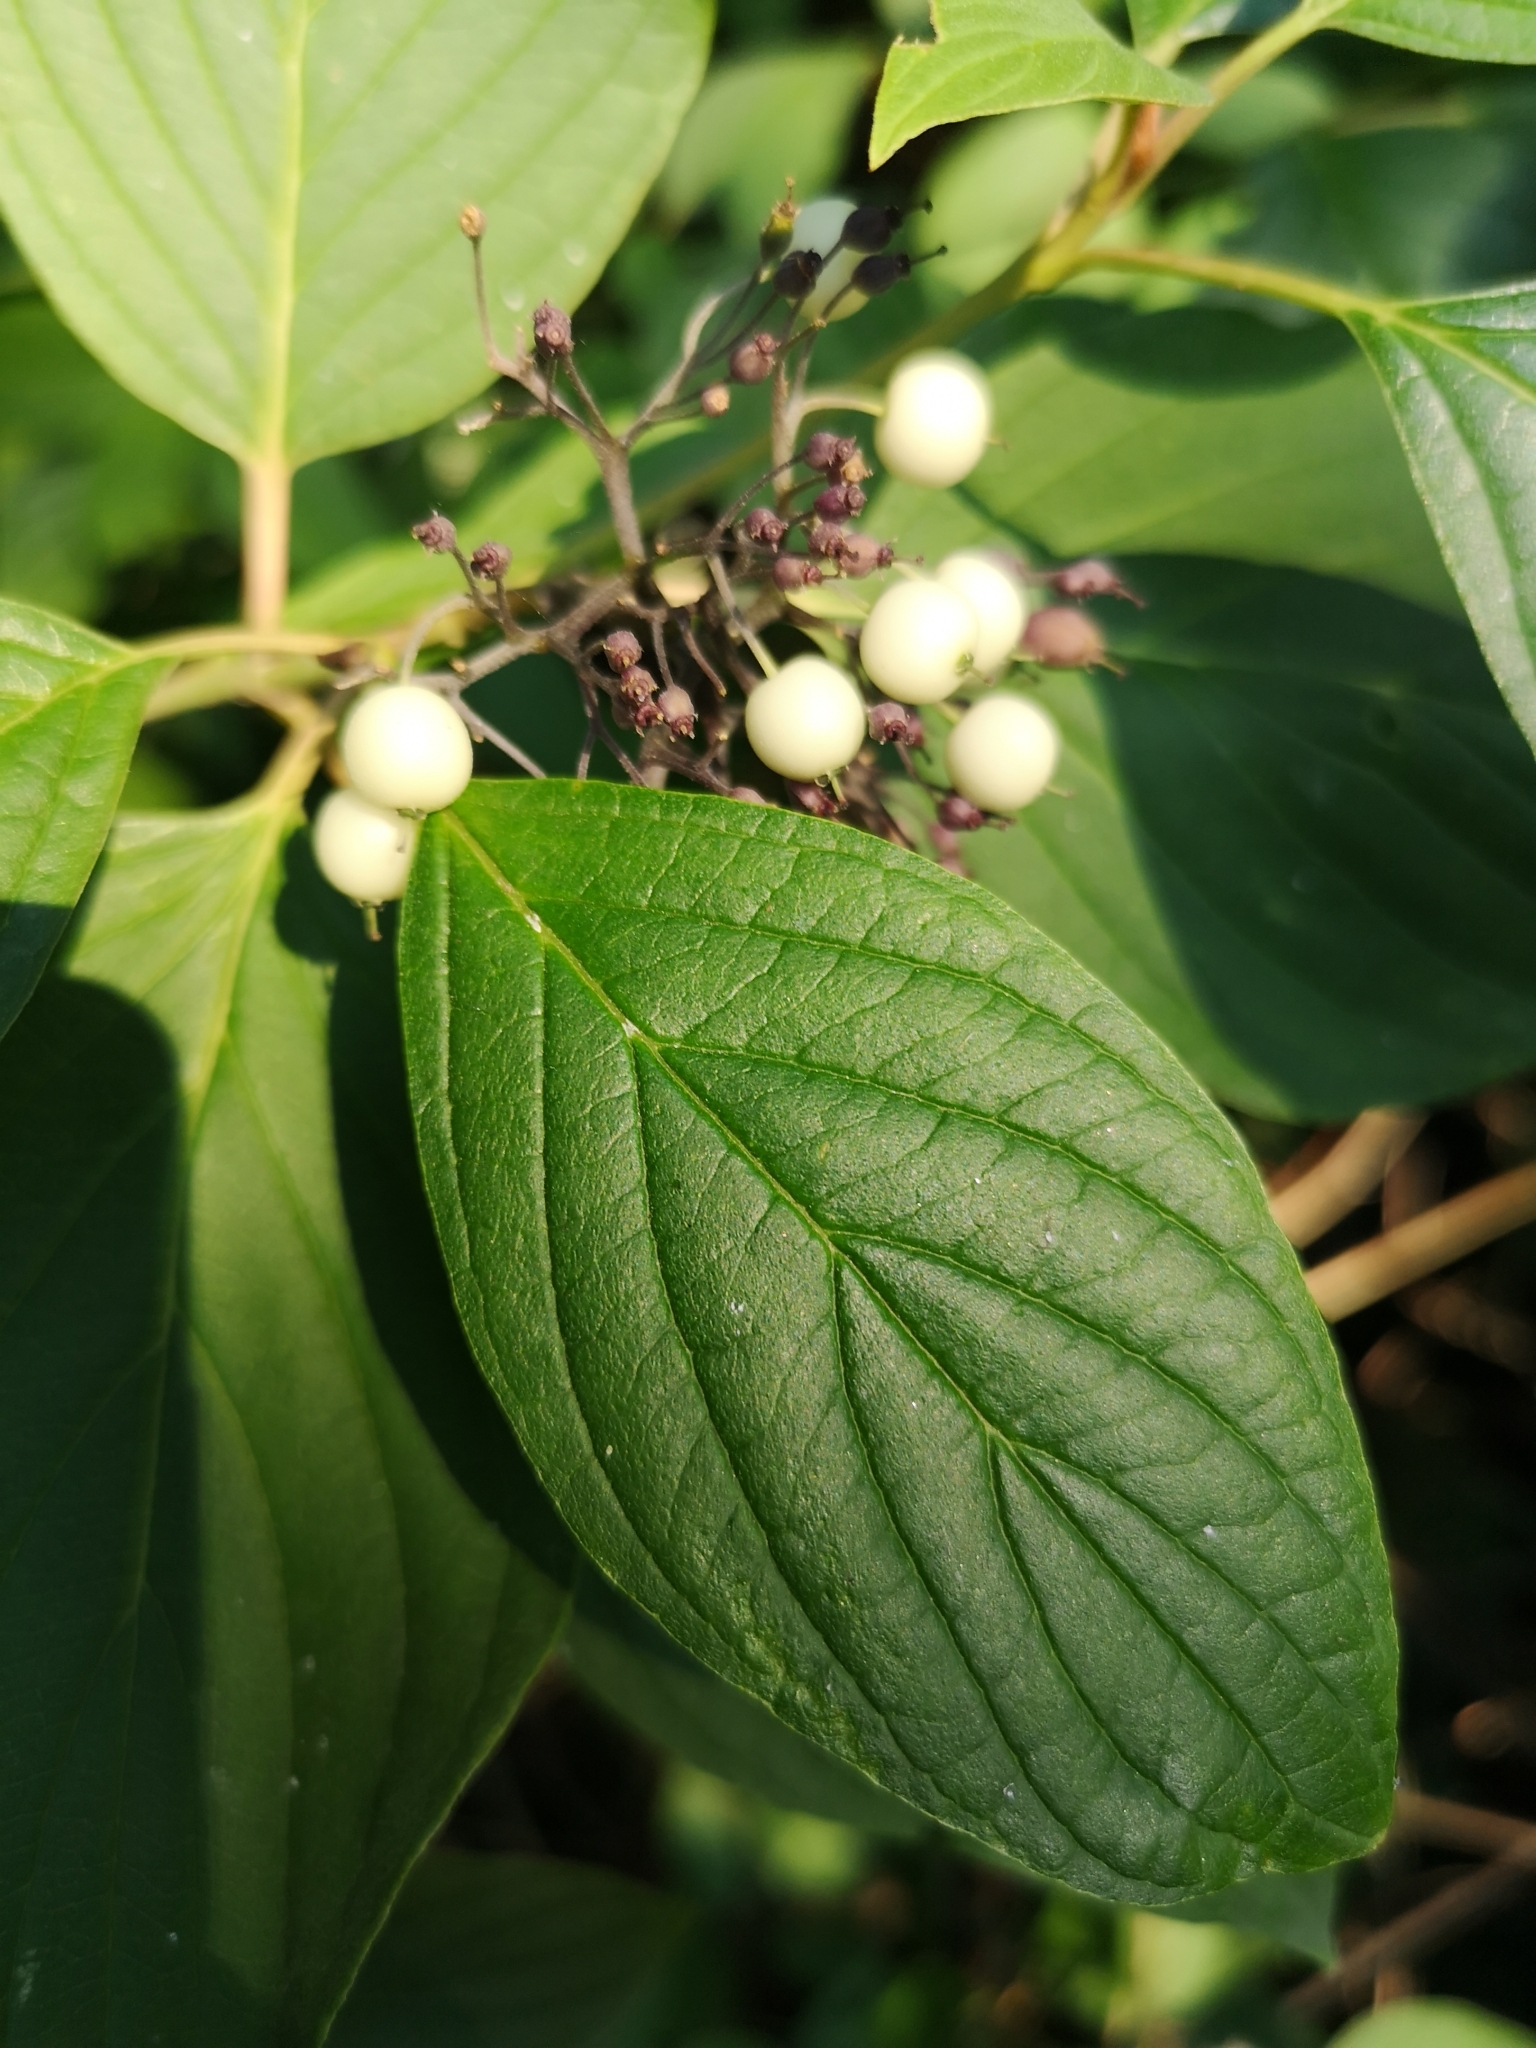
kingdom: Plantae
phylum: Tracheophyta
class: Magnoliopsida
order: Cornales
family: Cornaceae
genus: Cornus
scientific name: Cornus alba
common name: White dogwood
